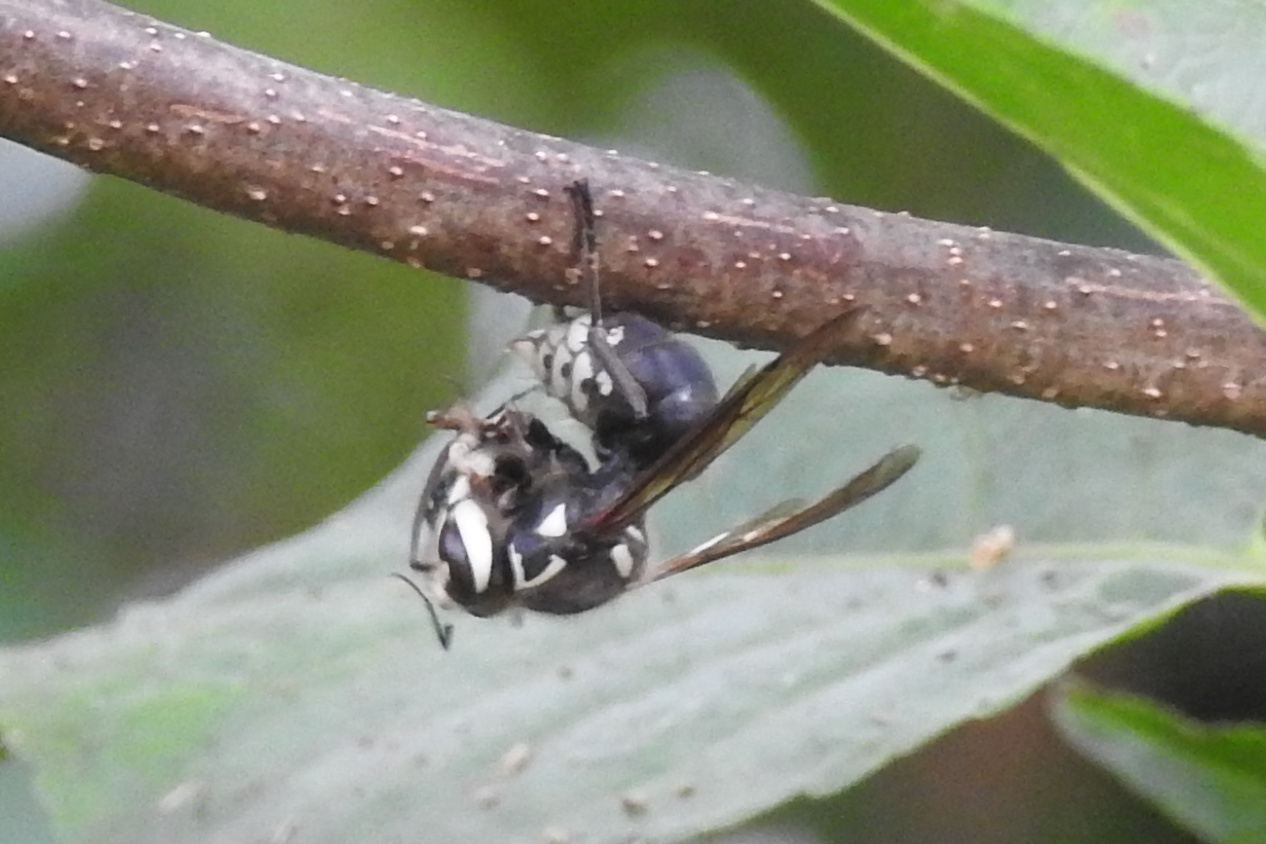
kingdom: Animalia
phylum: Arthropoda
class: Insecta
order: Hymenoptera
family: Vespidae
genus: Dolichovespula
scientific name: Dolichovespula maculata
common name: Bald-faced hornet
